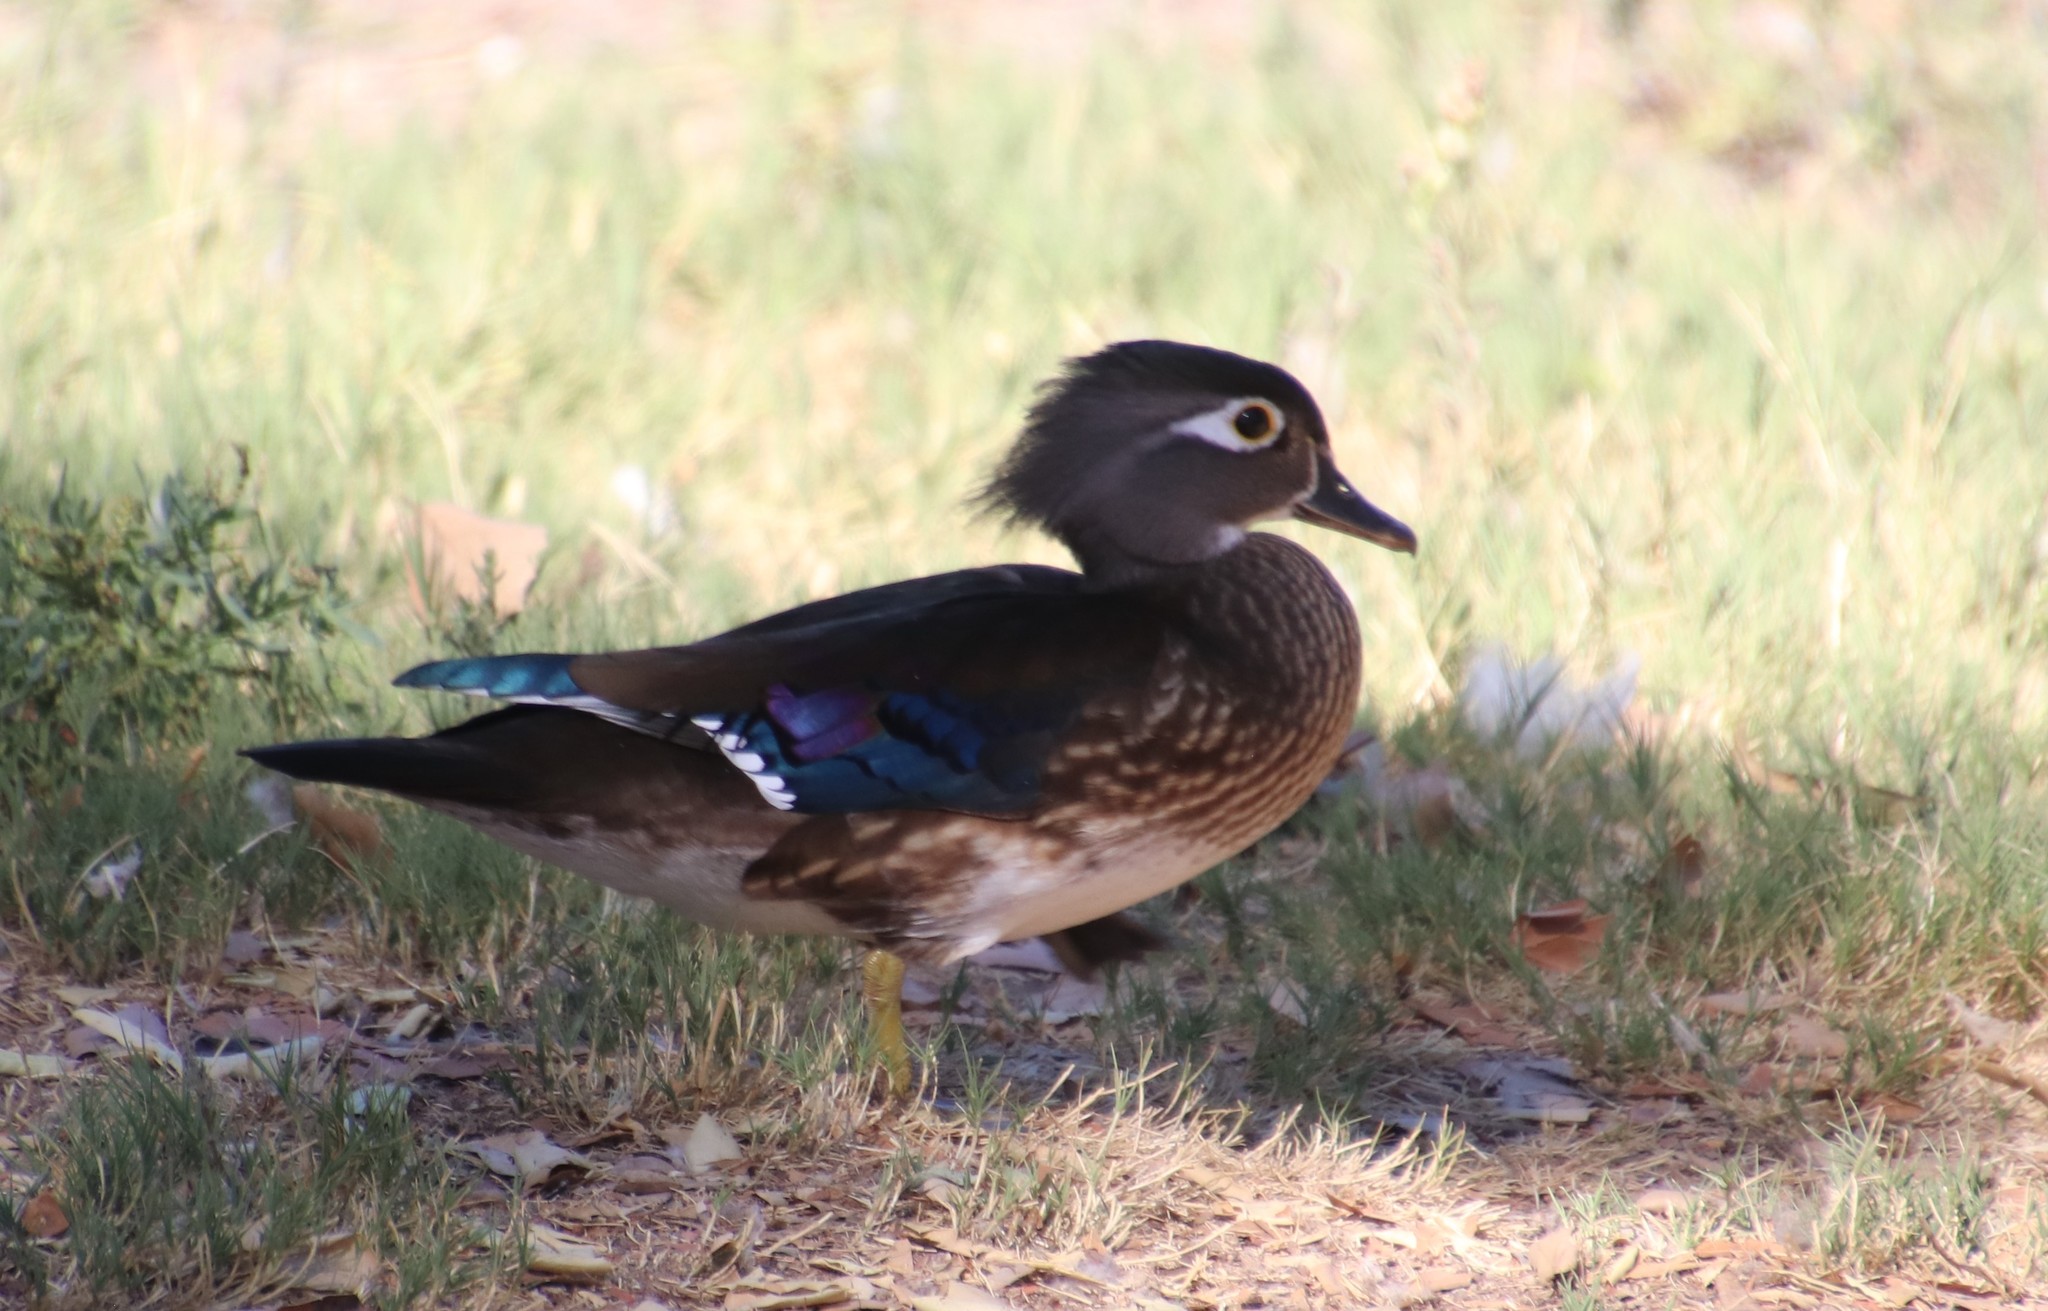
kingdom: Animalia
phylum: Chordata
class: Aves
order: Anseriformes
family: Anatidae
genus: Aix
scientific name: Aix sponsa
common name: Wood duck
